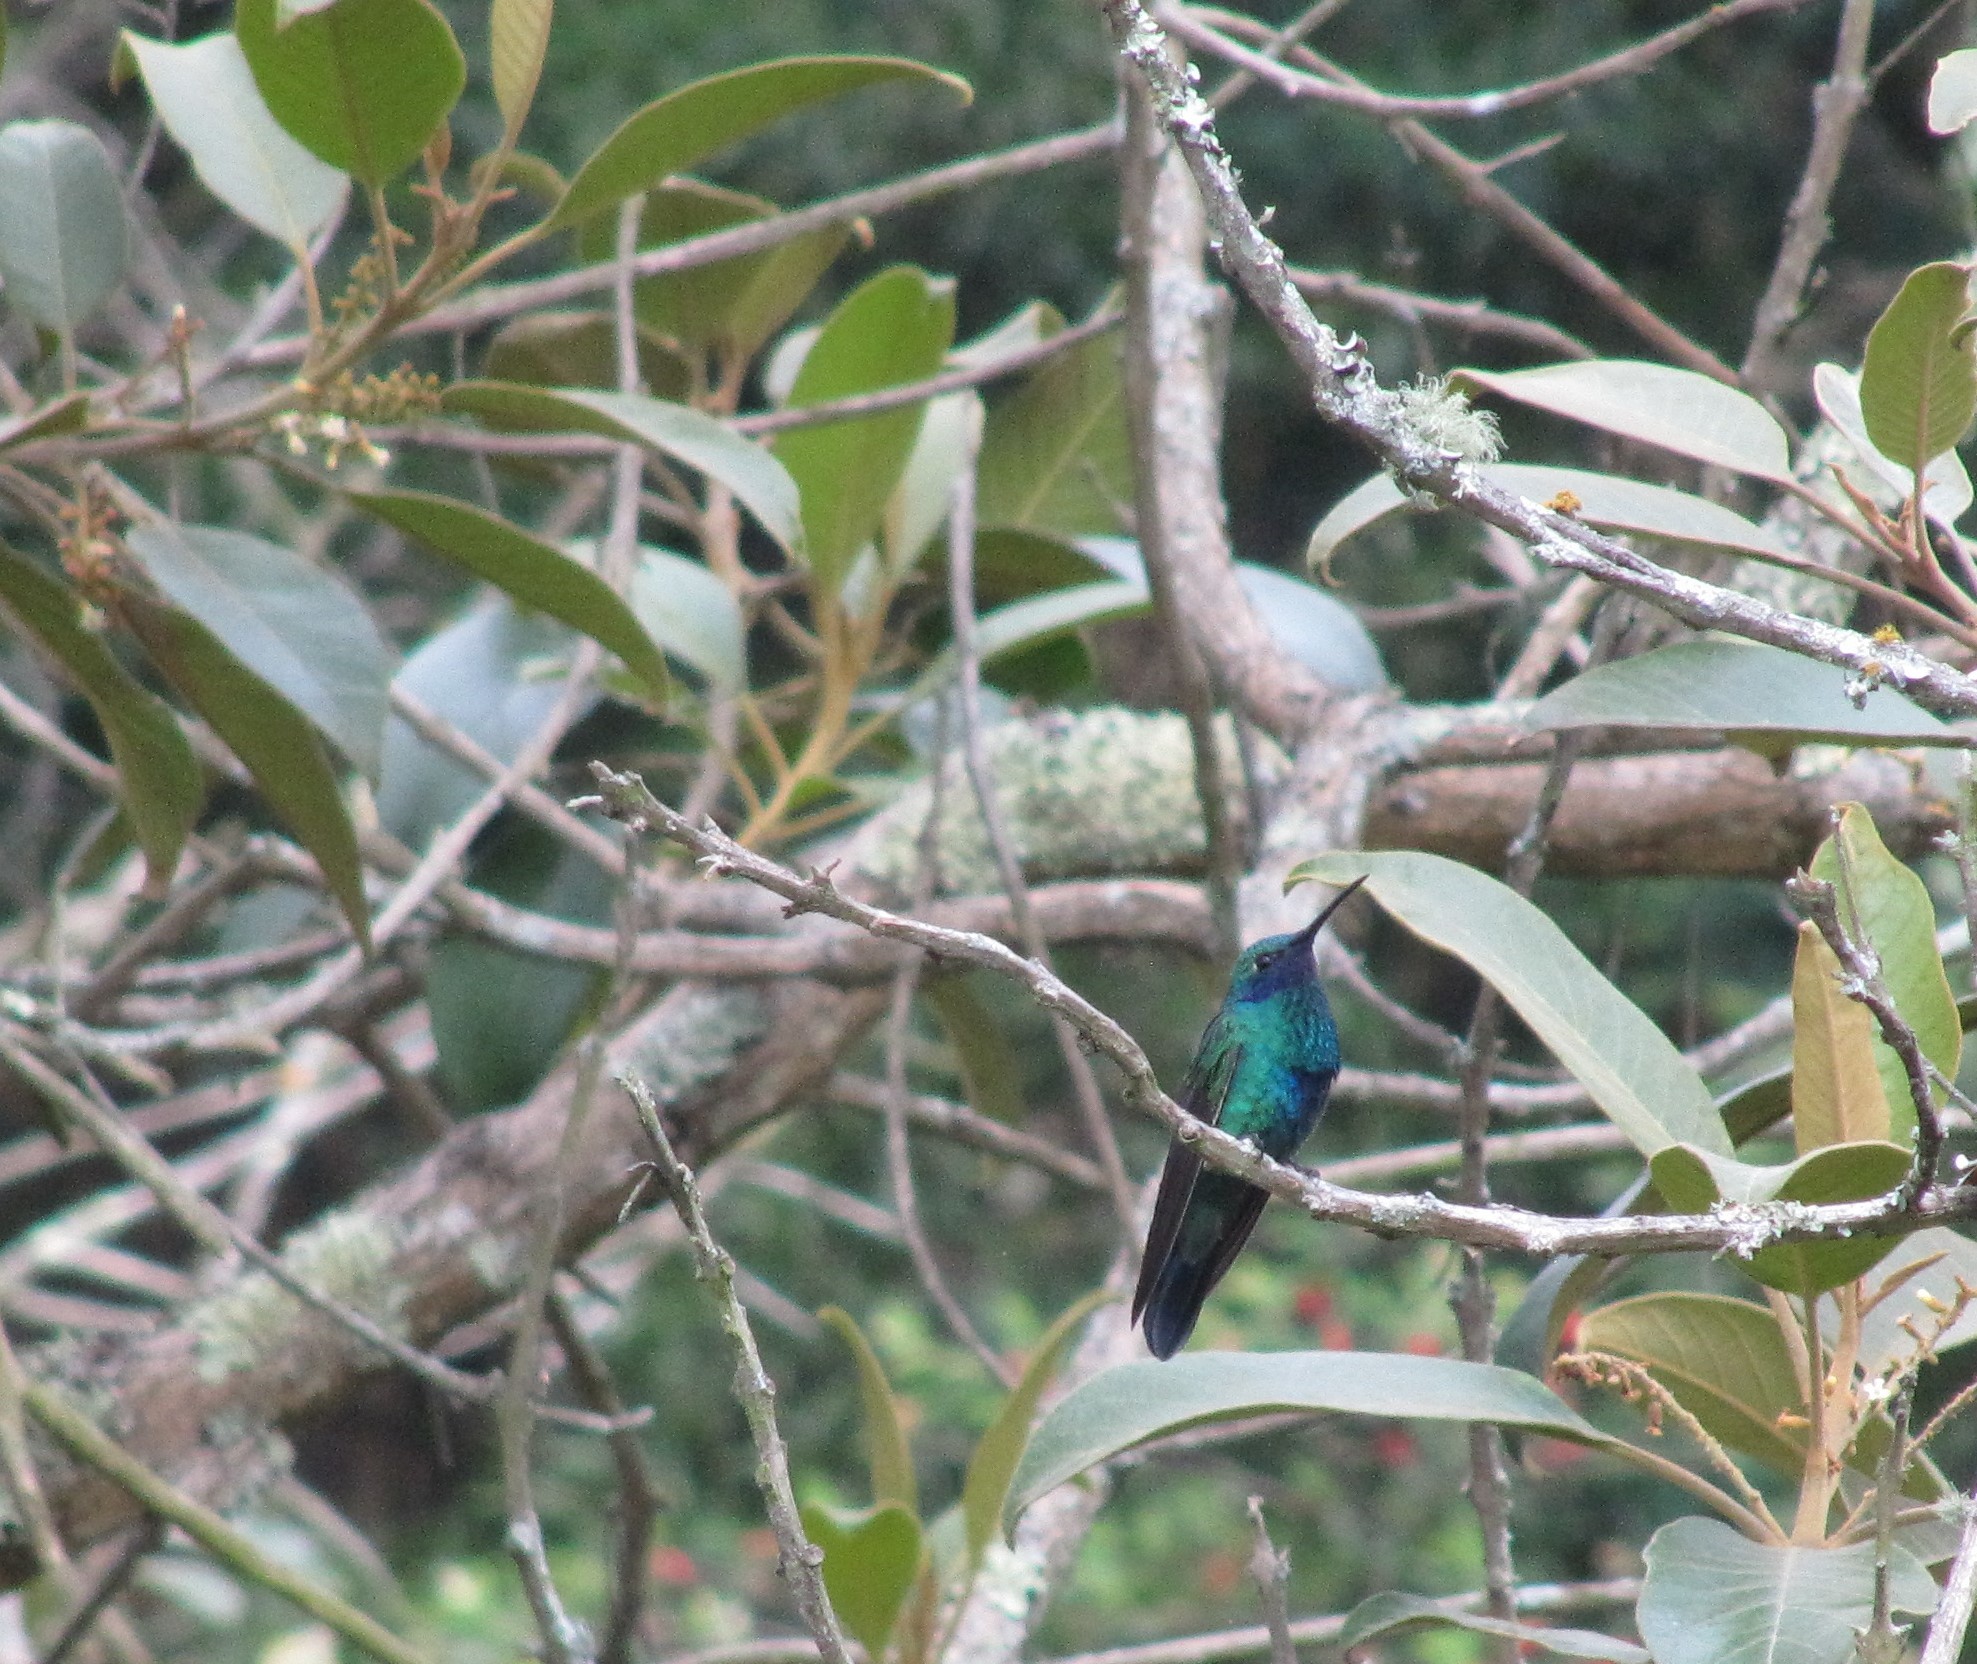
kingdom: Animalia
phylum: Chordata
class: Aves
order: Apodiformes
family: Trochilidae
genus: Colibri
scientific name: Colibri coruscans
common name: Sparkling violetear
